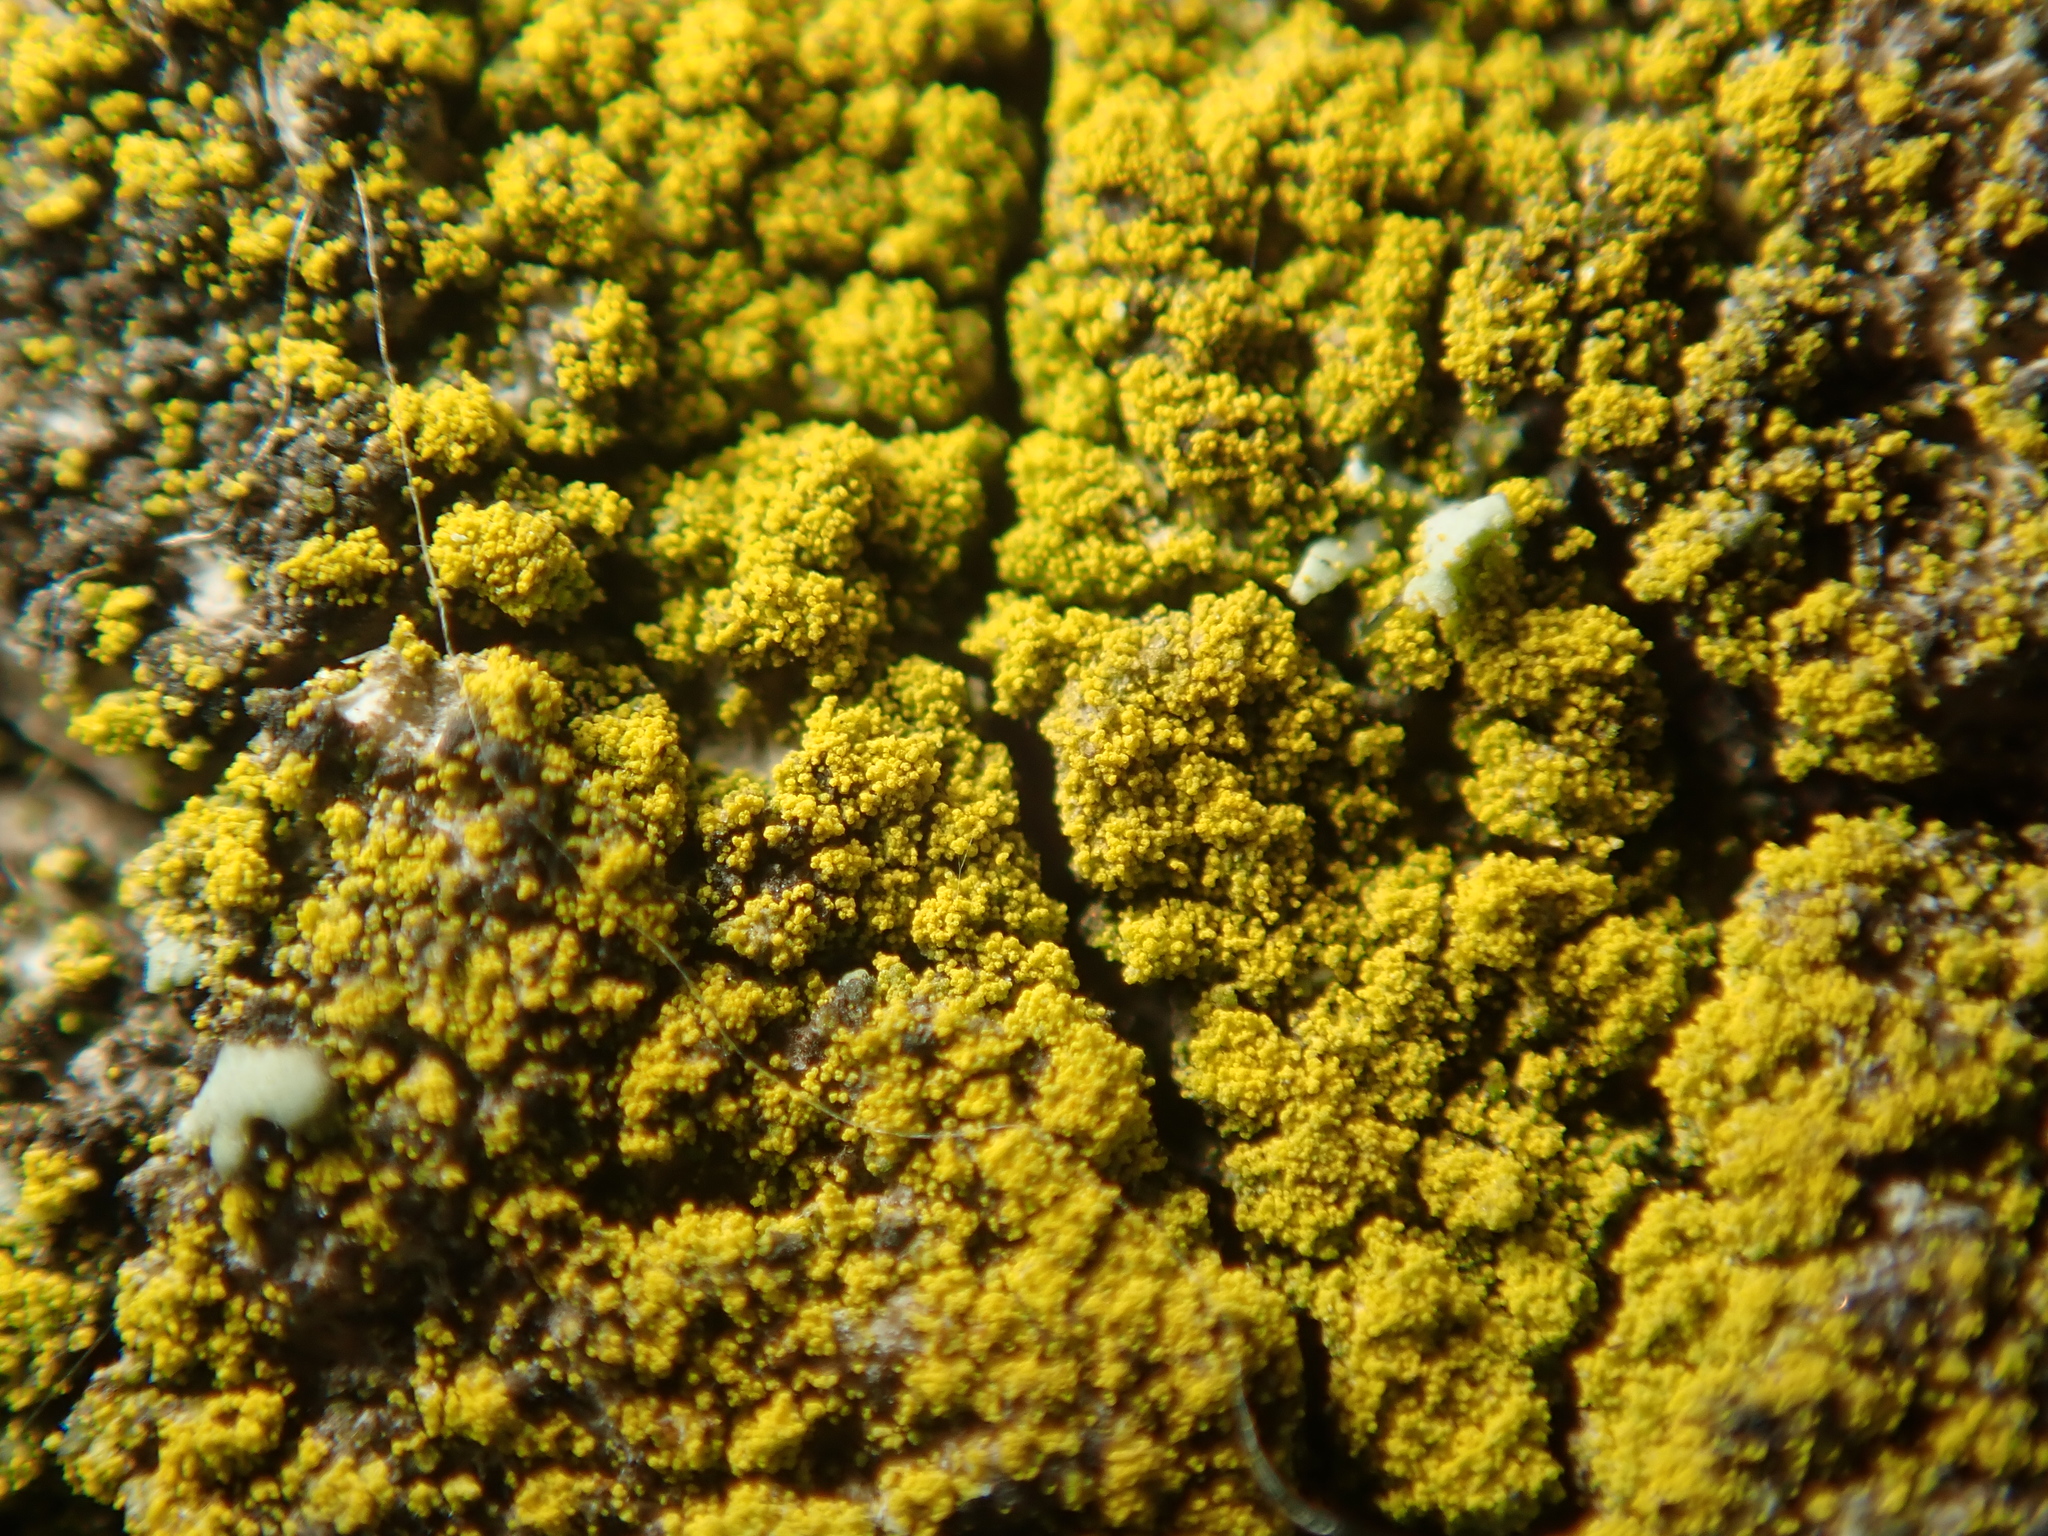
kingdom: Fungi
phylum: Ascomycota
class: Candelariomycetes
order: Candelariales
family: Candelariaceae
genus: Candelariella
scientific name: Candelariella efflorescens
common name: Powdery goldspeck
